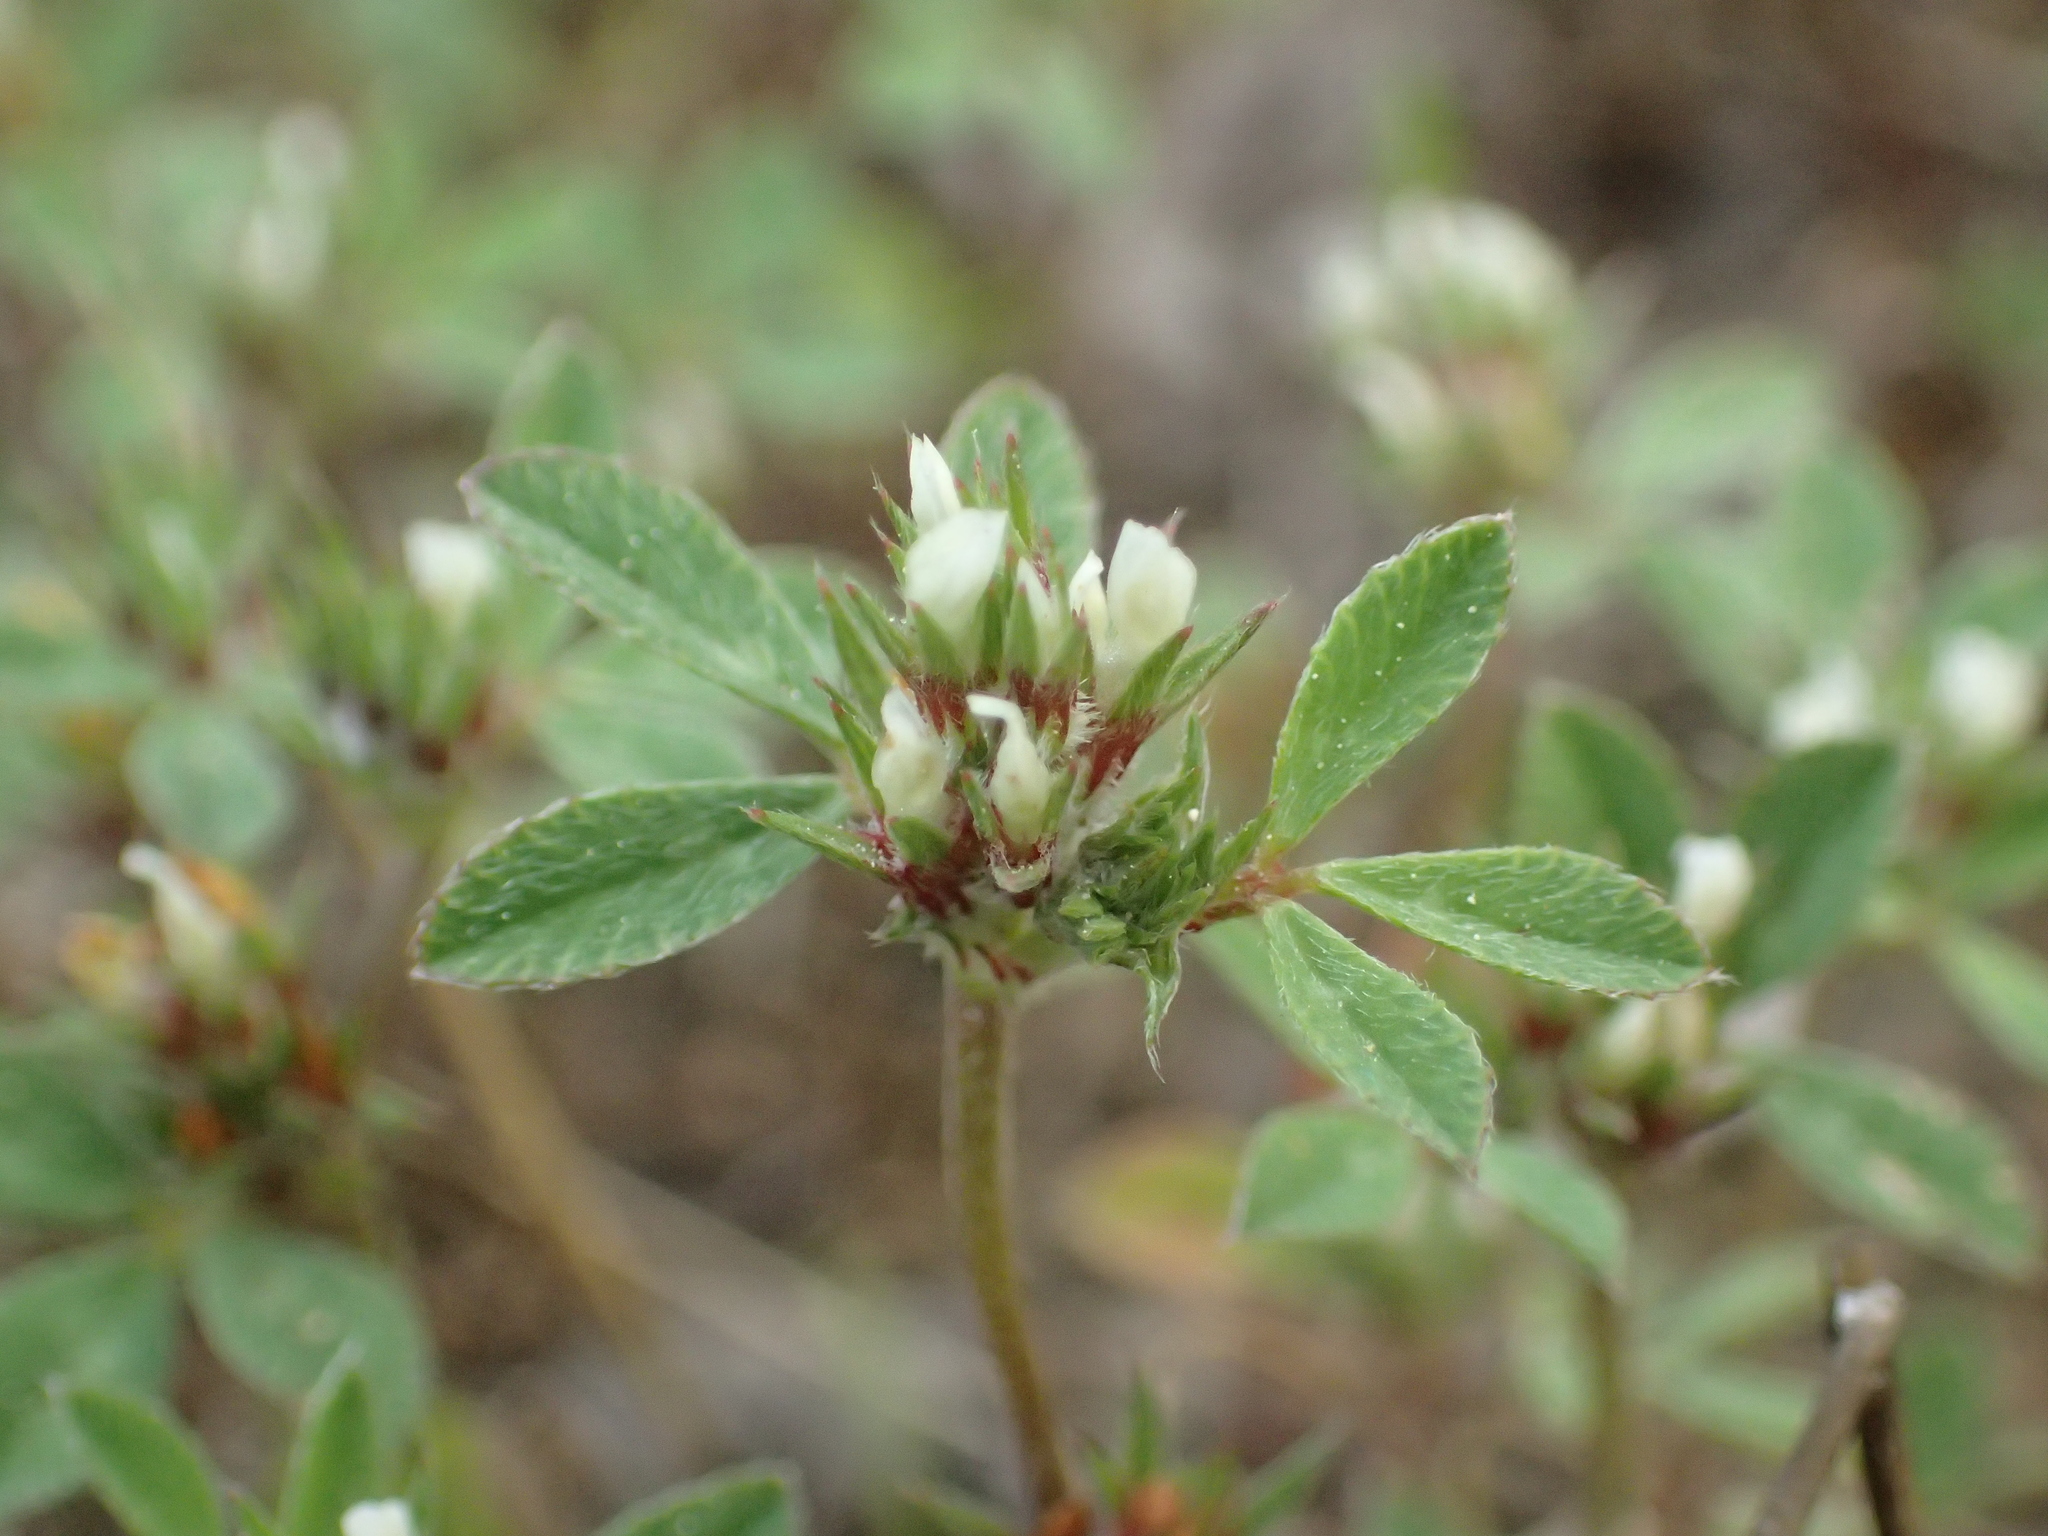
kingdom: Plantae
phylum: Tracheophyta
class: Magnoliopsida
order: Fabales
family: Fabaceae
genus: Trifolium
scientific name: Trifolium scabrum
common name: Rough clover
